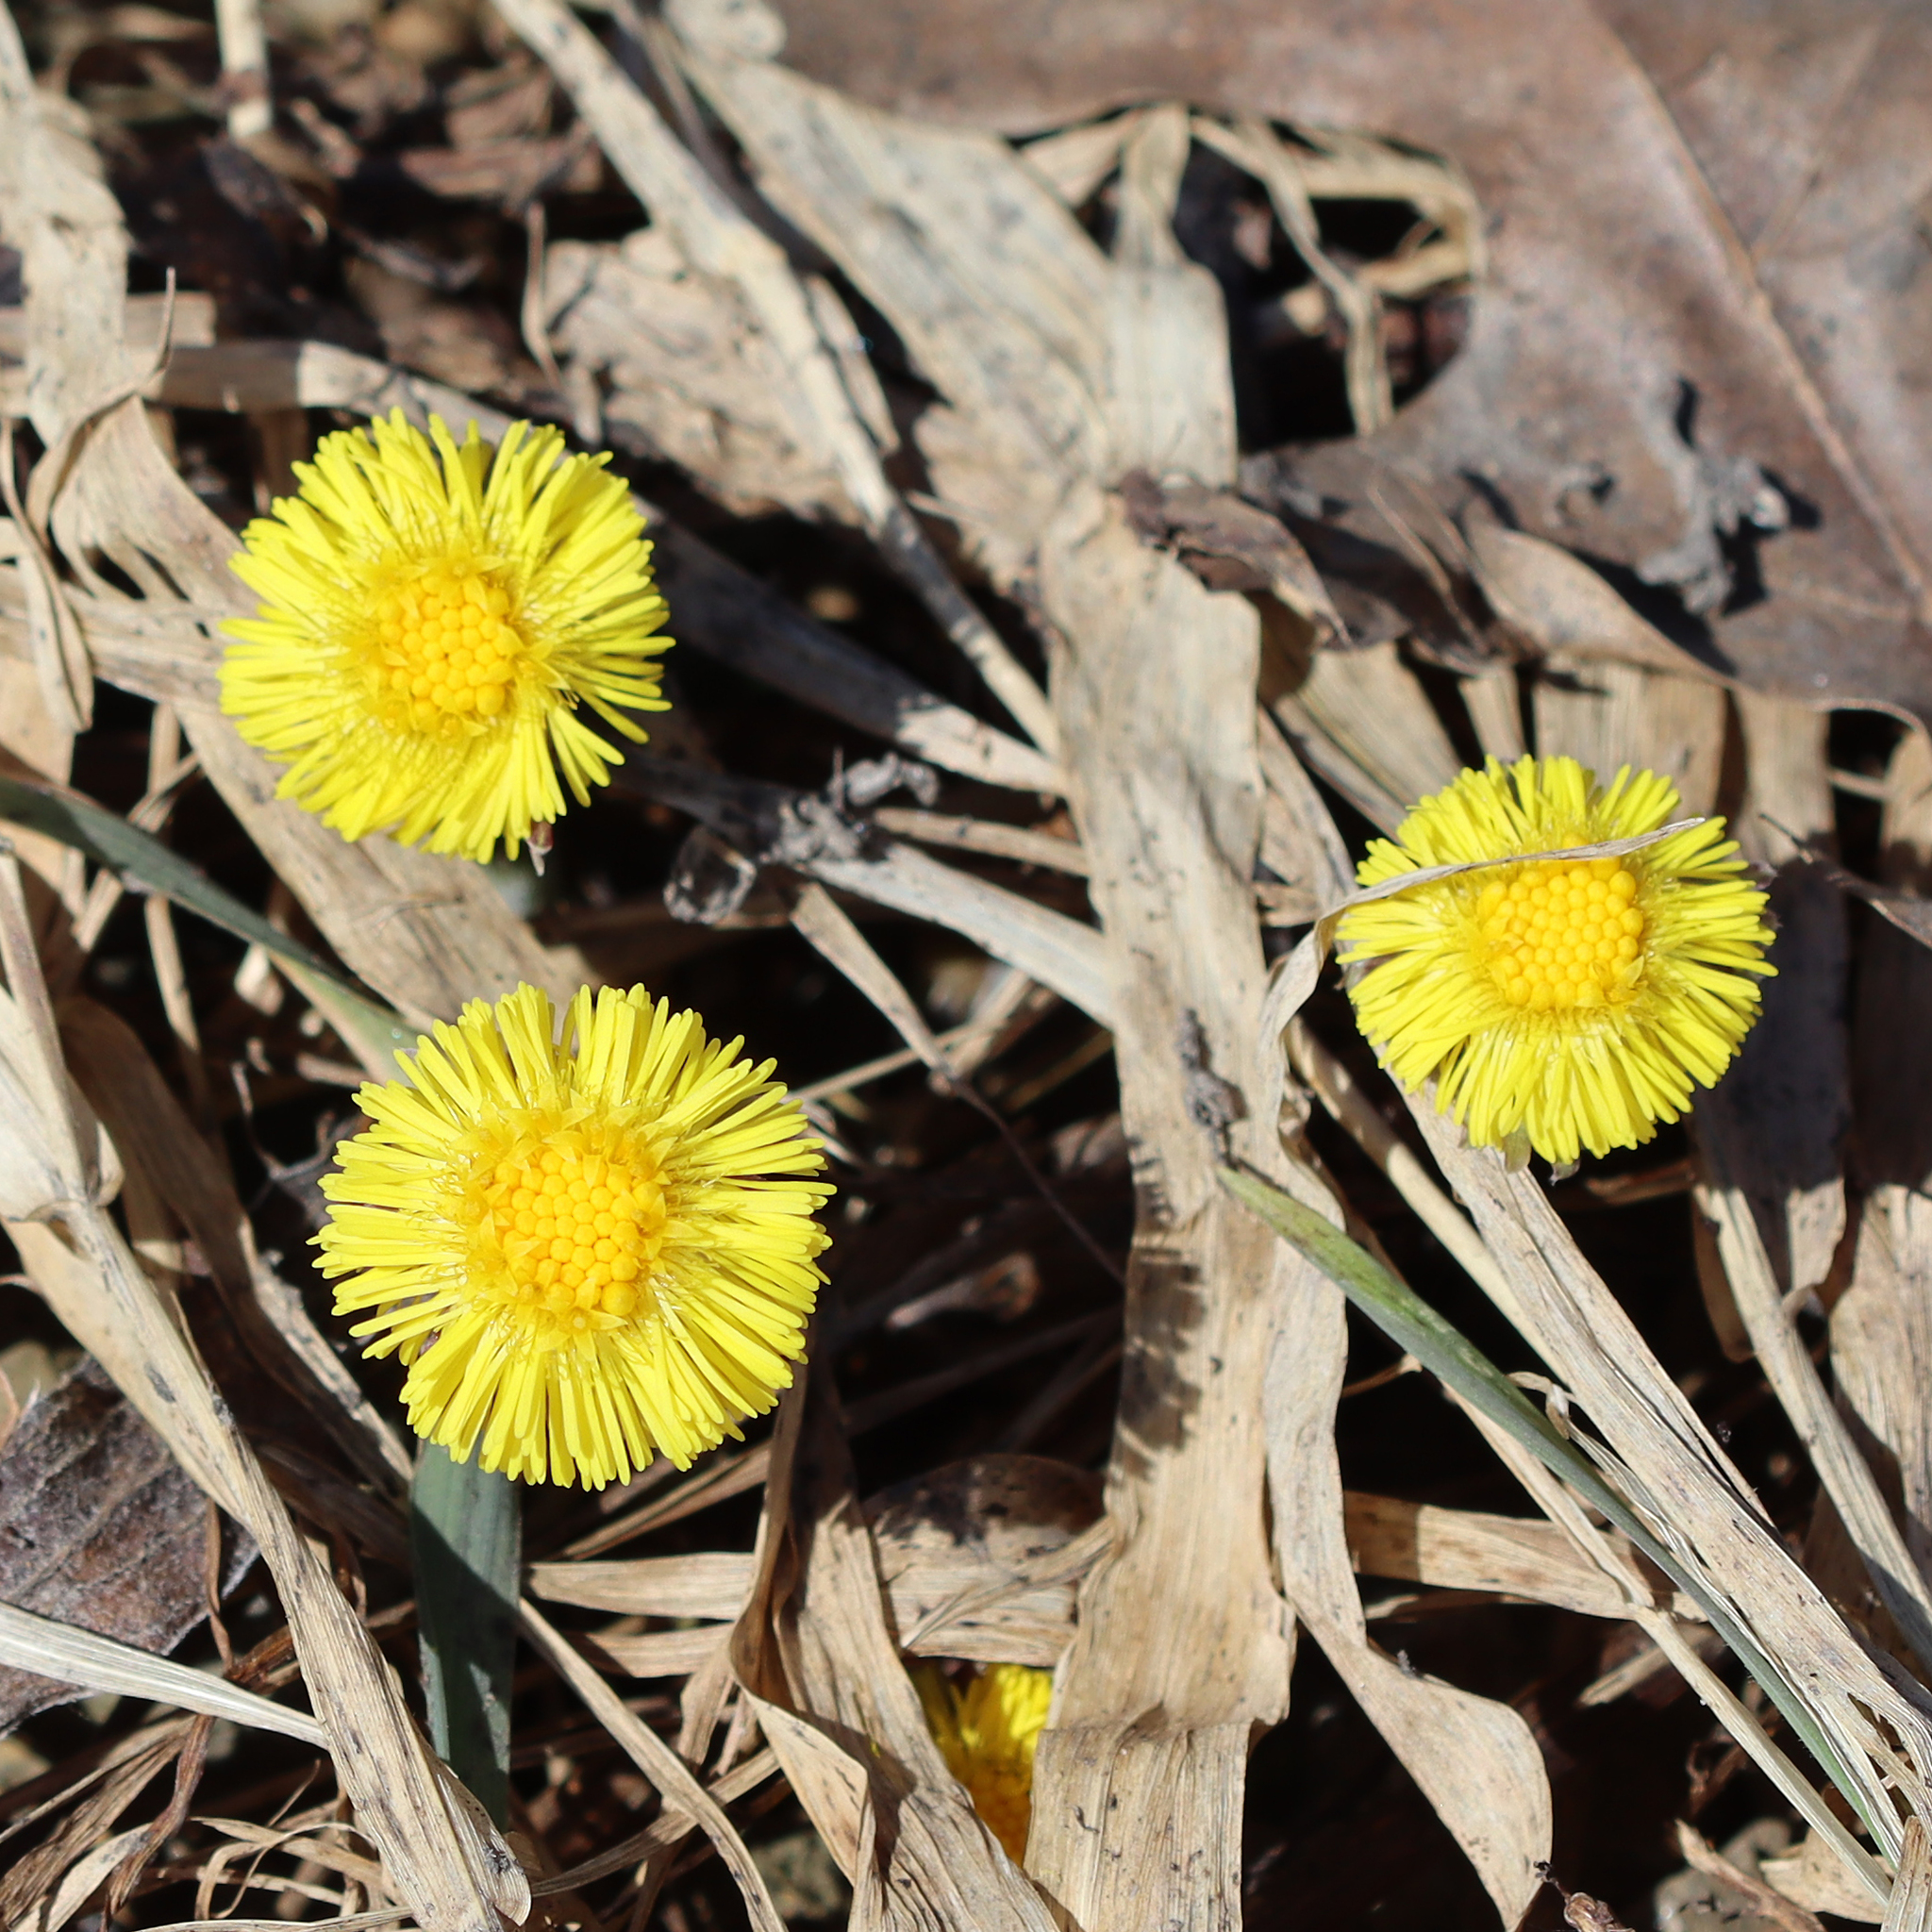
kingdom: Plantae
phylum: Tracheophyta
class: Magnoliopsida
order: Asterales
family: Asteraceae
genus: Tussilago
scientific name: Tussilago farfara
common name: Coltsfoot
